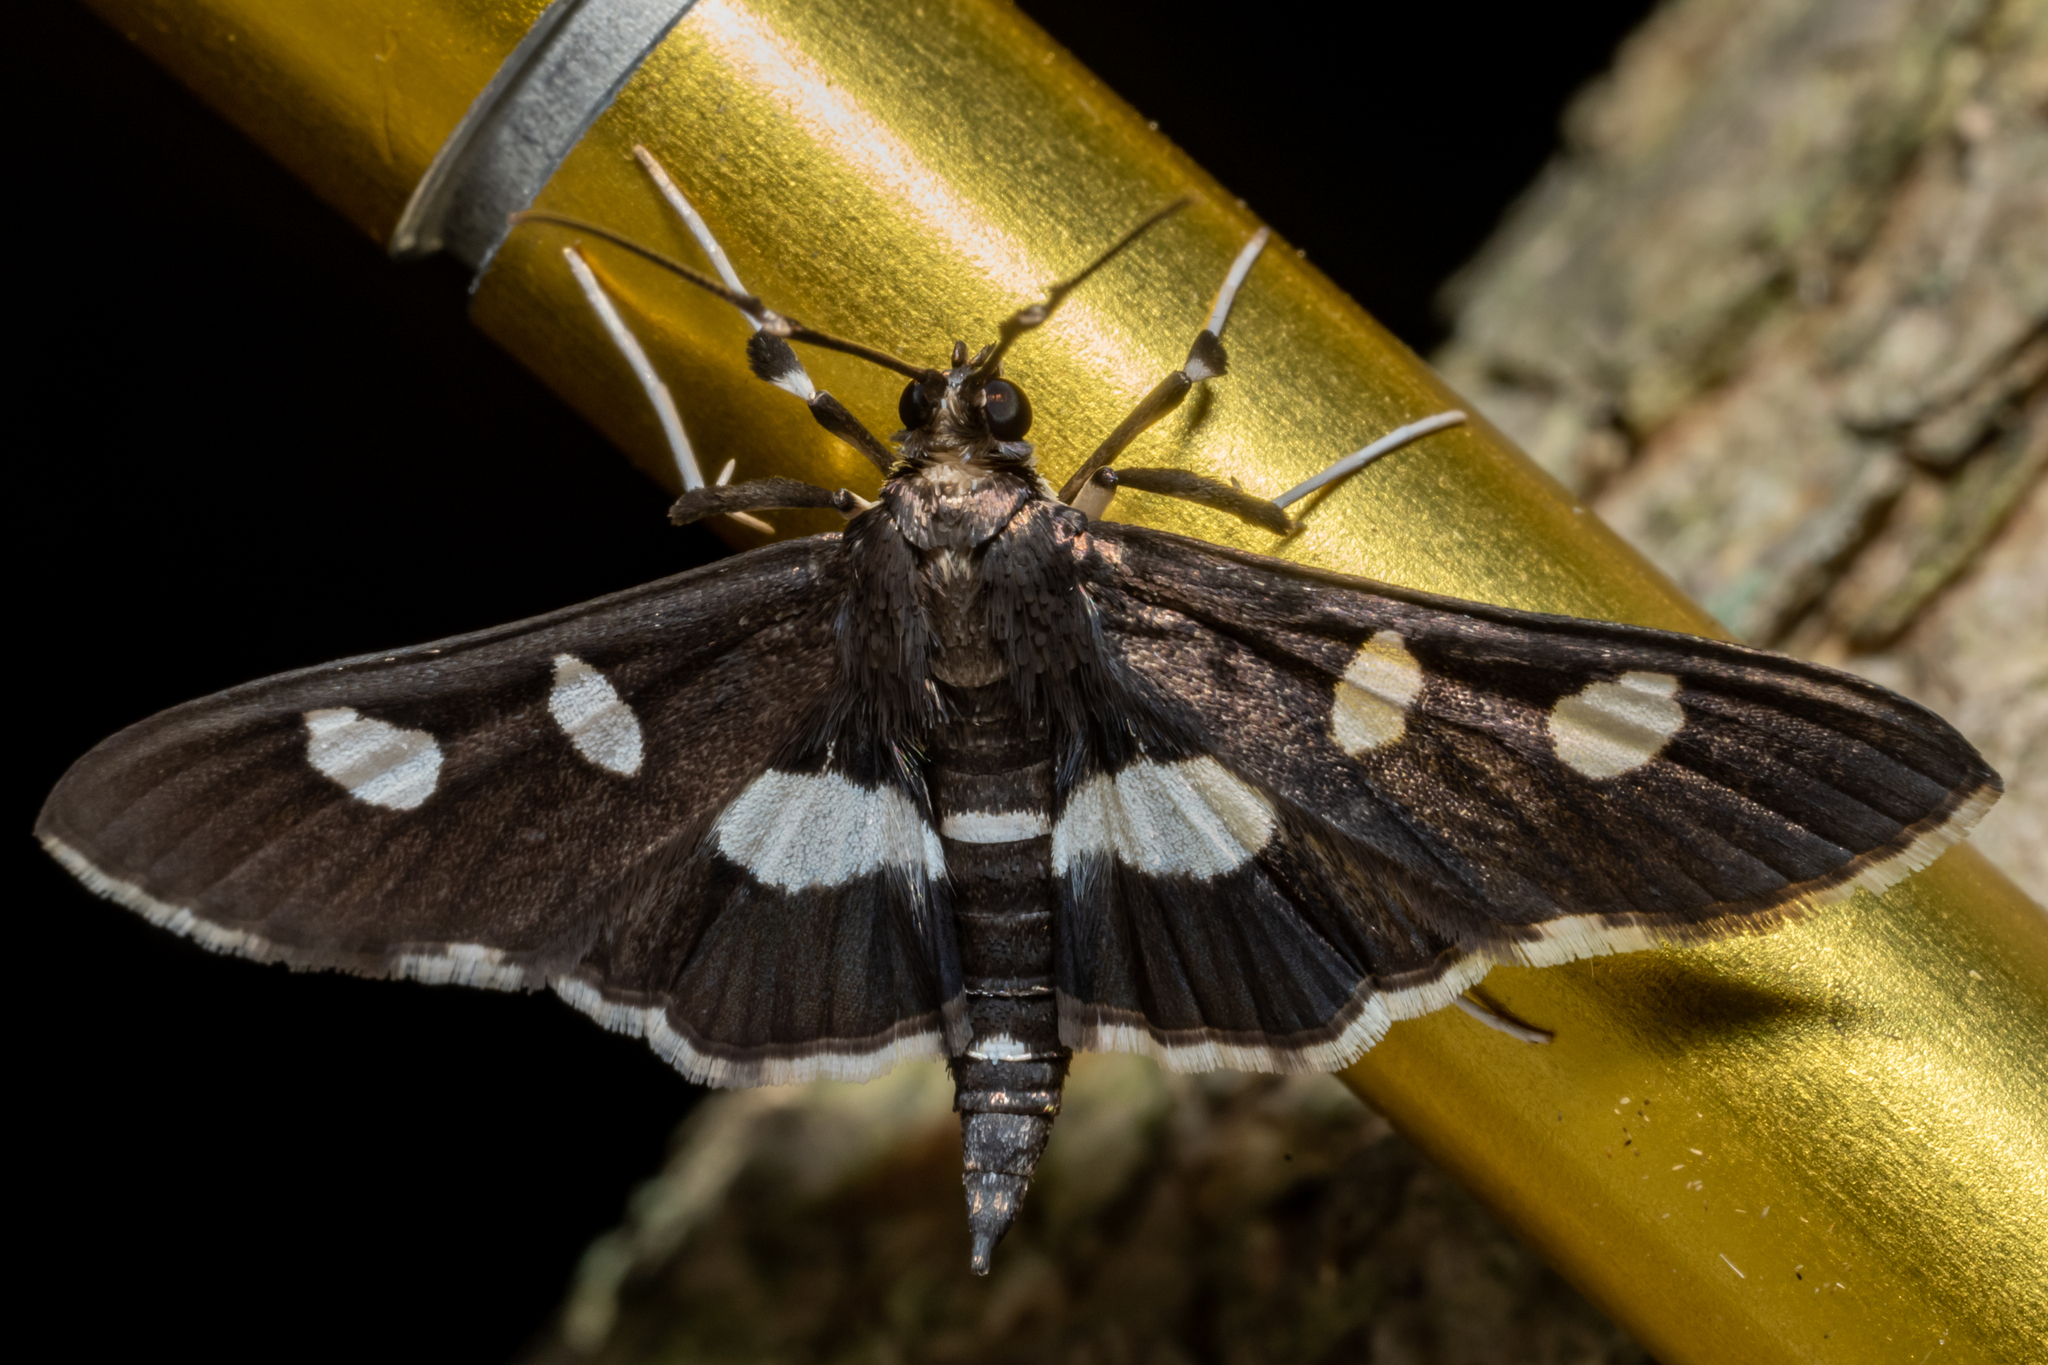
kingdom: Animalia
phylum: Arthropoda
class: Insecta
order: Lepidoptera
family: Crambidae
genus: Desmia
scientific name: Desmia
